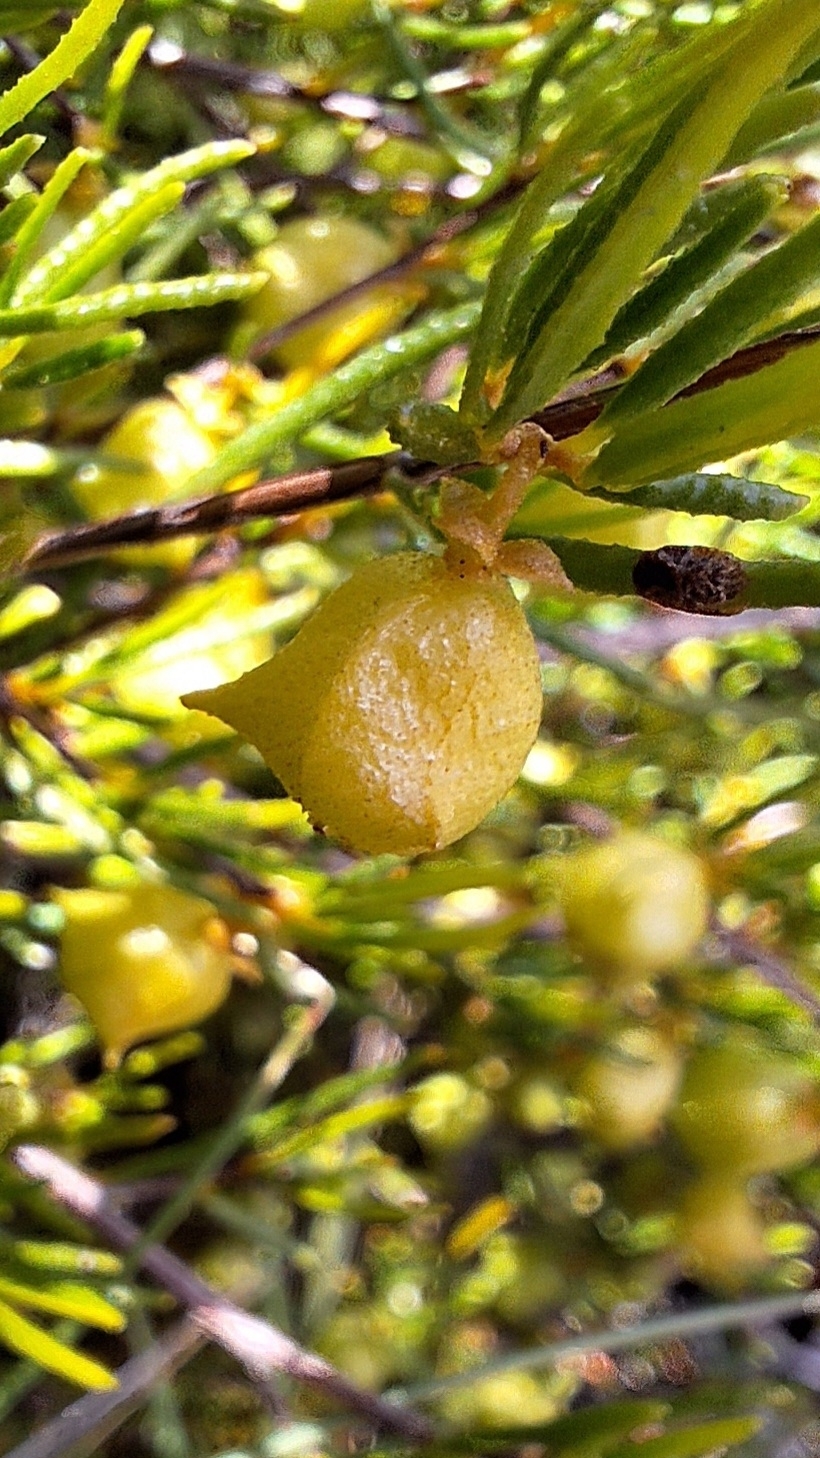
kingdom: Plantae
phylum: Tracheophyta
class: Magnoliopsida
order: Sapindales
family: Sapindaceae
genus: Dodonaea
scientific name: Dodonaea hexandra
